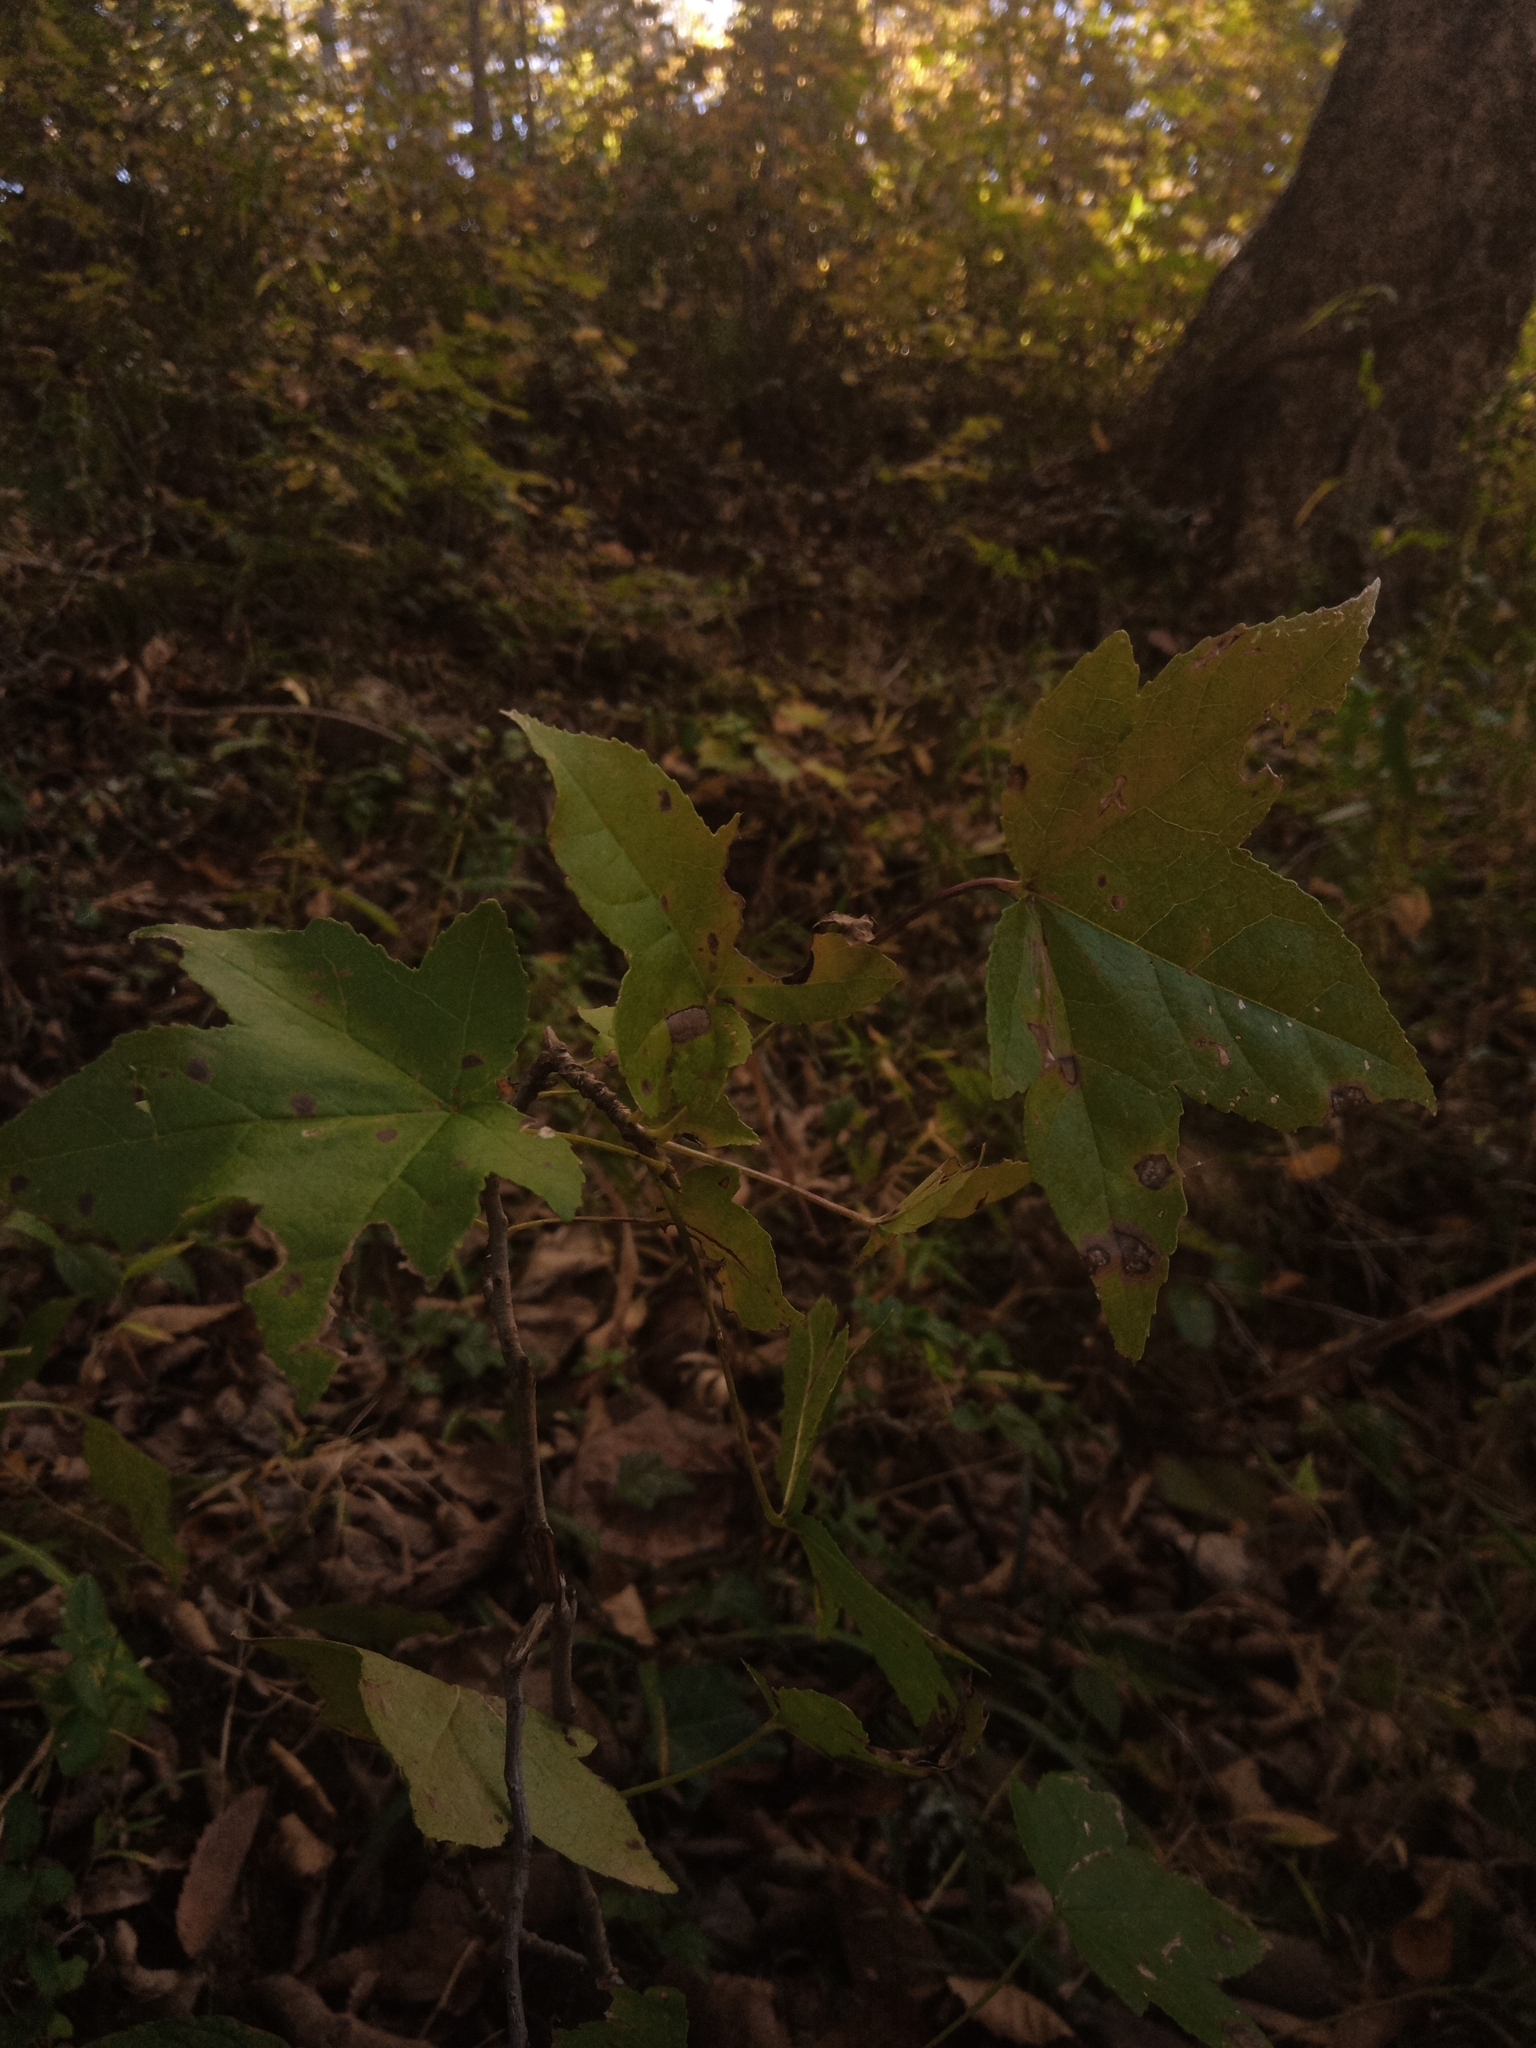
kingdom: Plantae
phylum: Tracheophyta
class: Magnoliopsida
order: Saxifragales
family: Altingiaceae
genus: Liquidambar
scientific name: Liquidambar styraciflua
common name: Sweet gum
